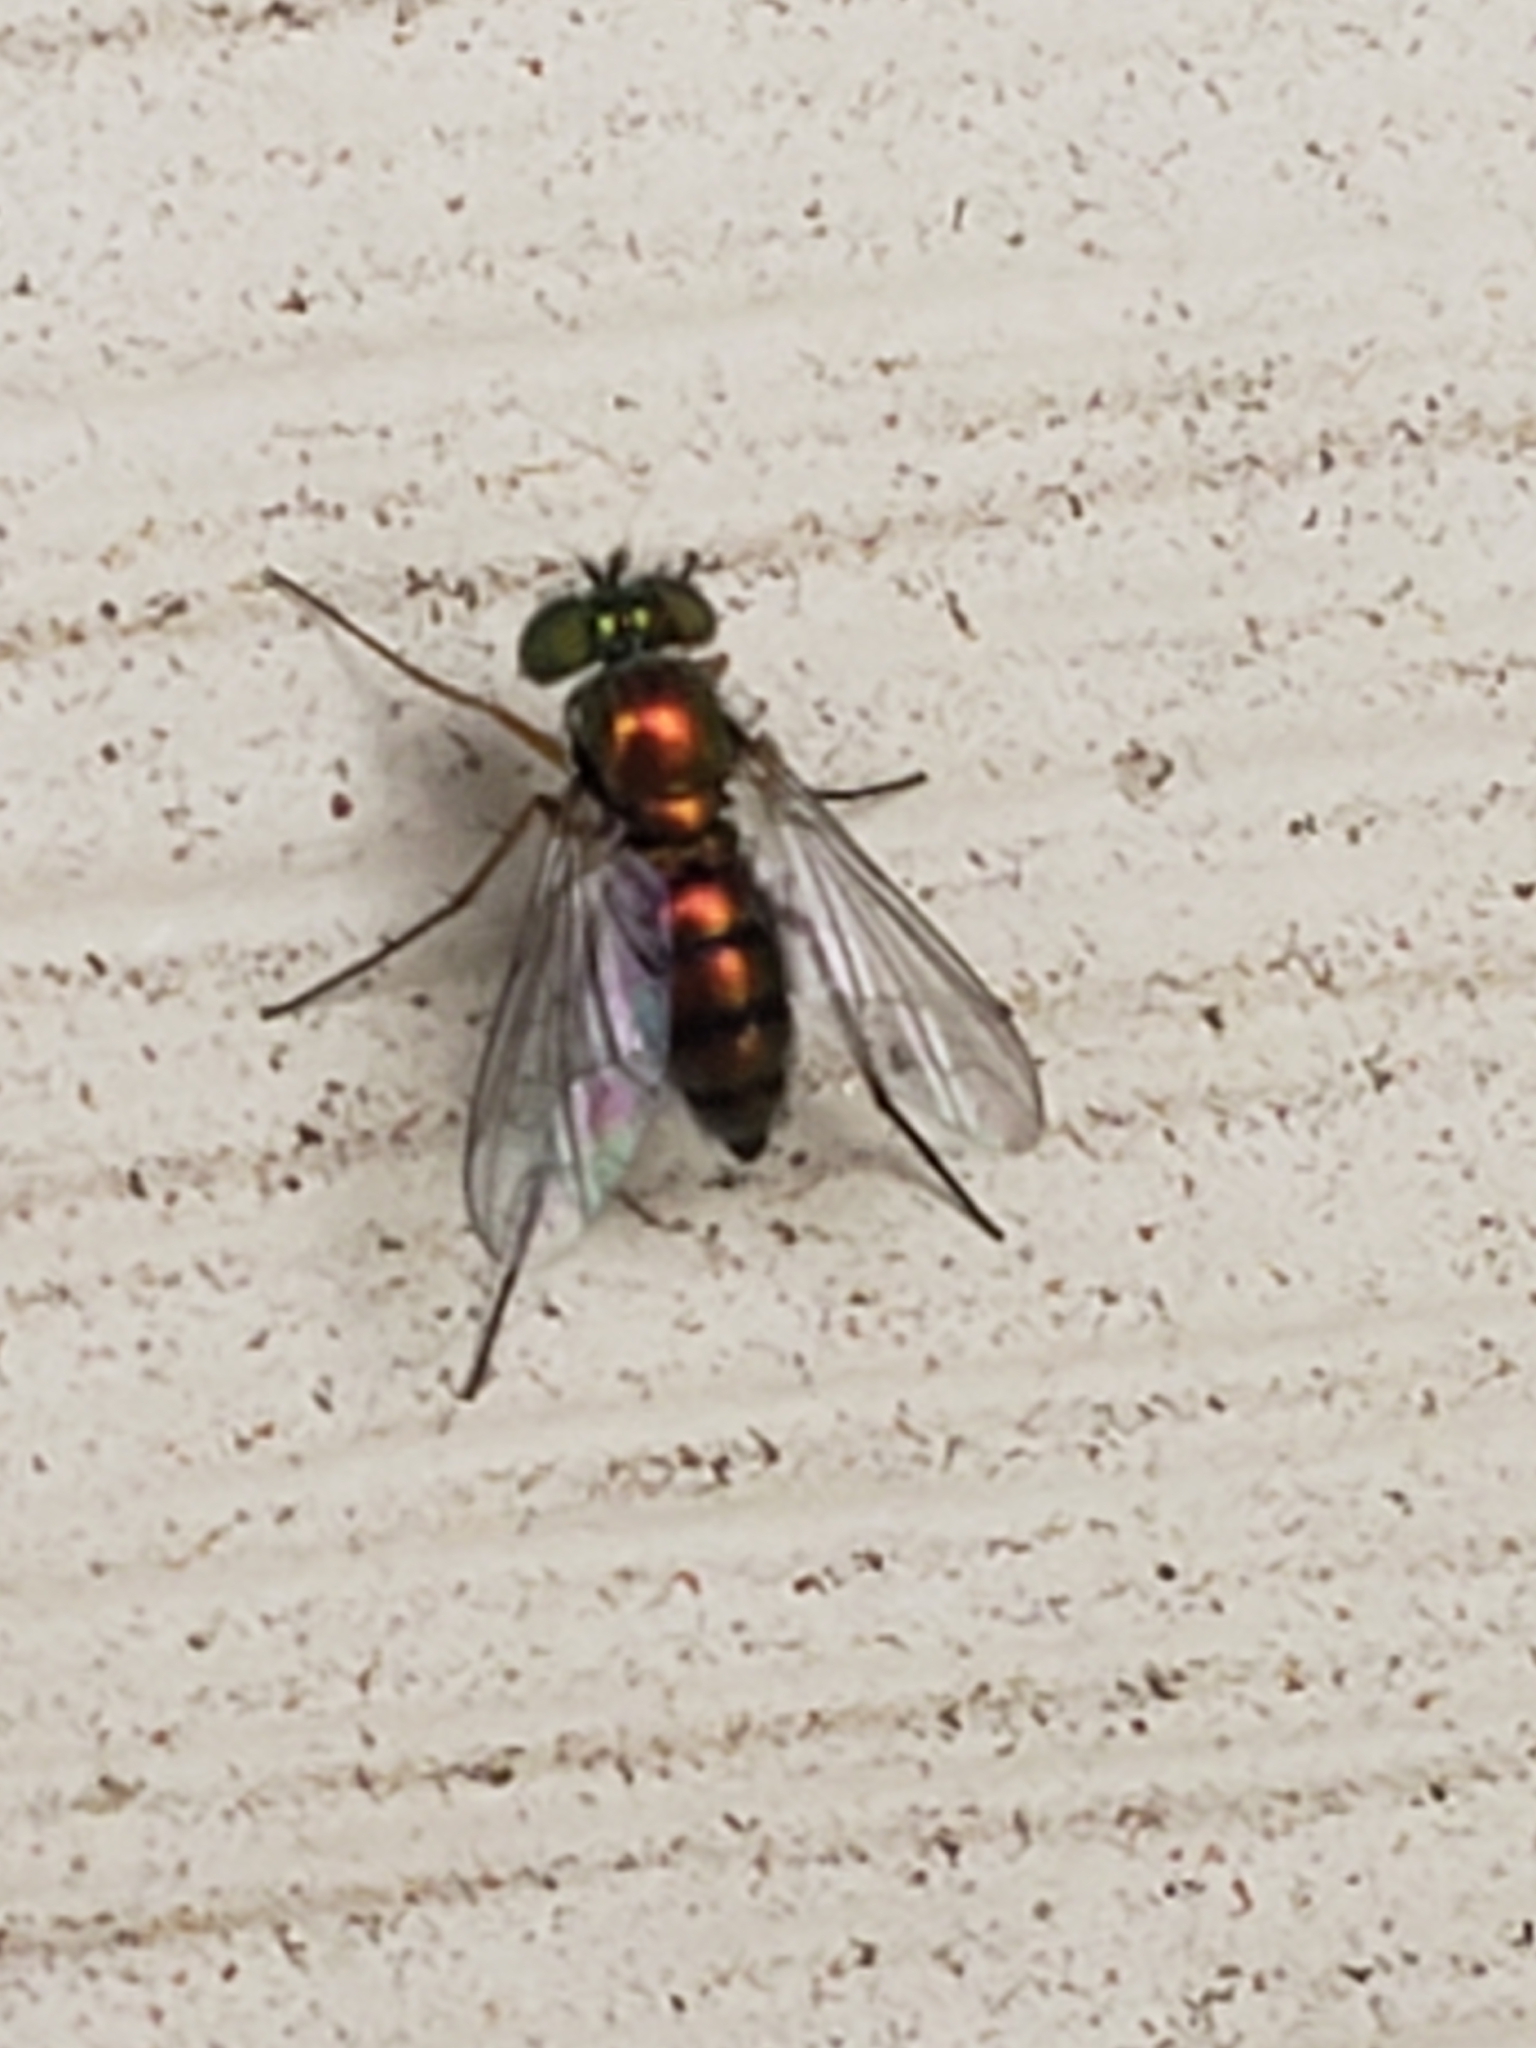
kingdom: Animalia
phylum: Arthropoda
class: Insecta
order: Diptera
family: Dolichopodidae
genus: Condylostylus
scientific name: Condylostylus
